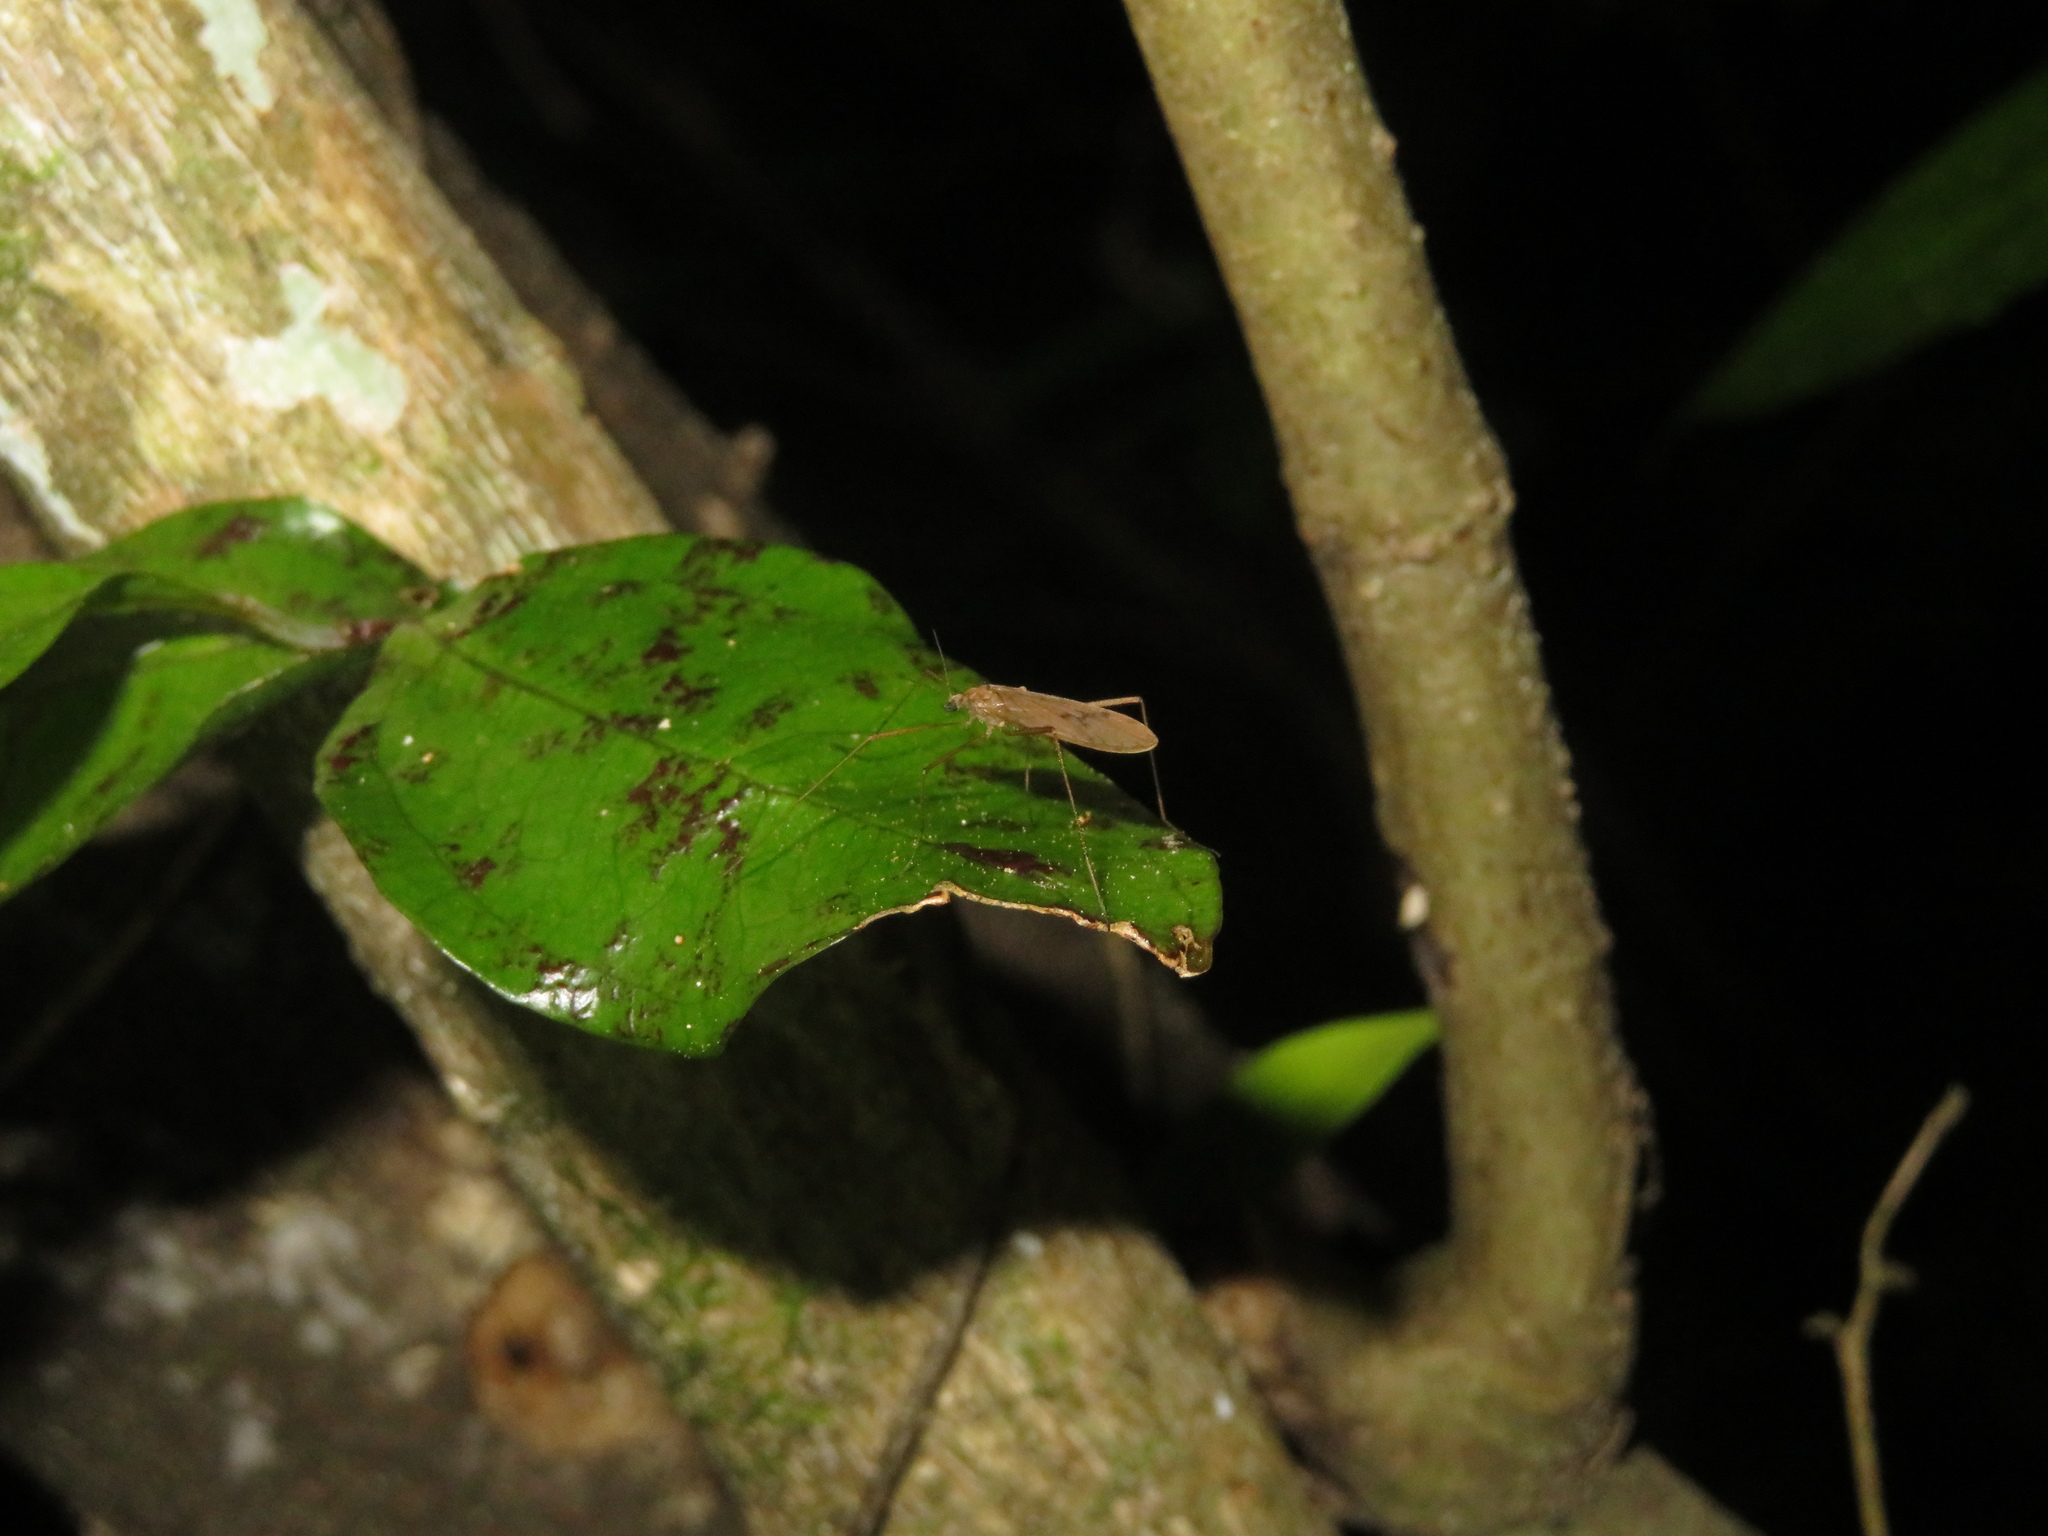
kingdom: Animalia
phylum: Arthropoda
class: Insecta
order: Diptera
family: Limoniidae
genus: Amphineurus
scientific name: Amphineurus insulsus
